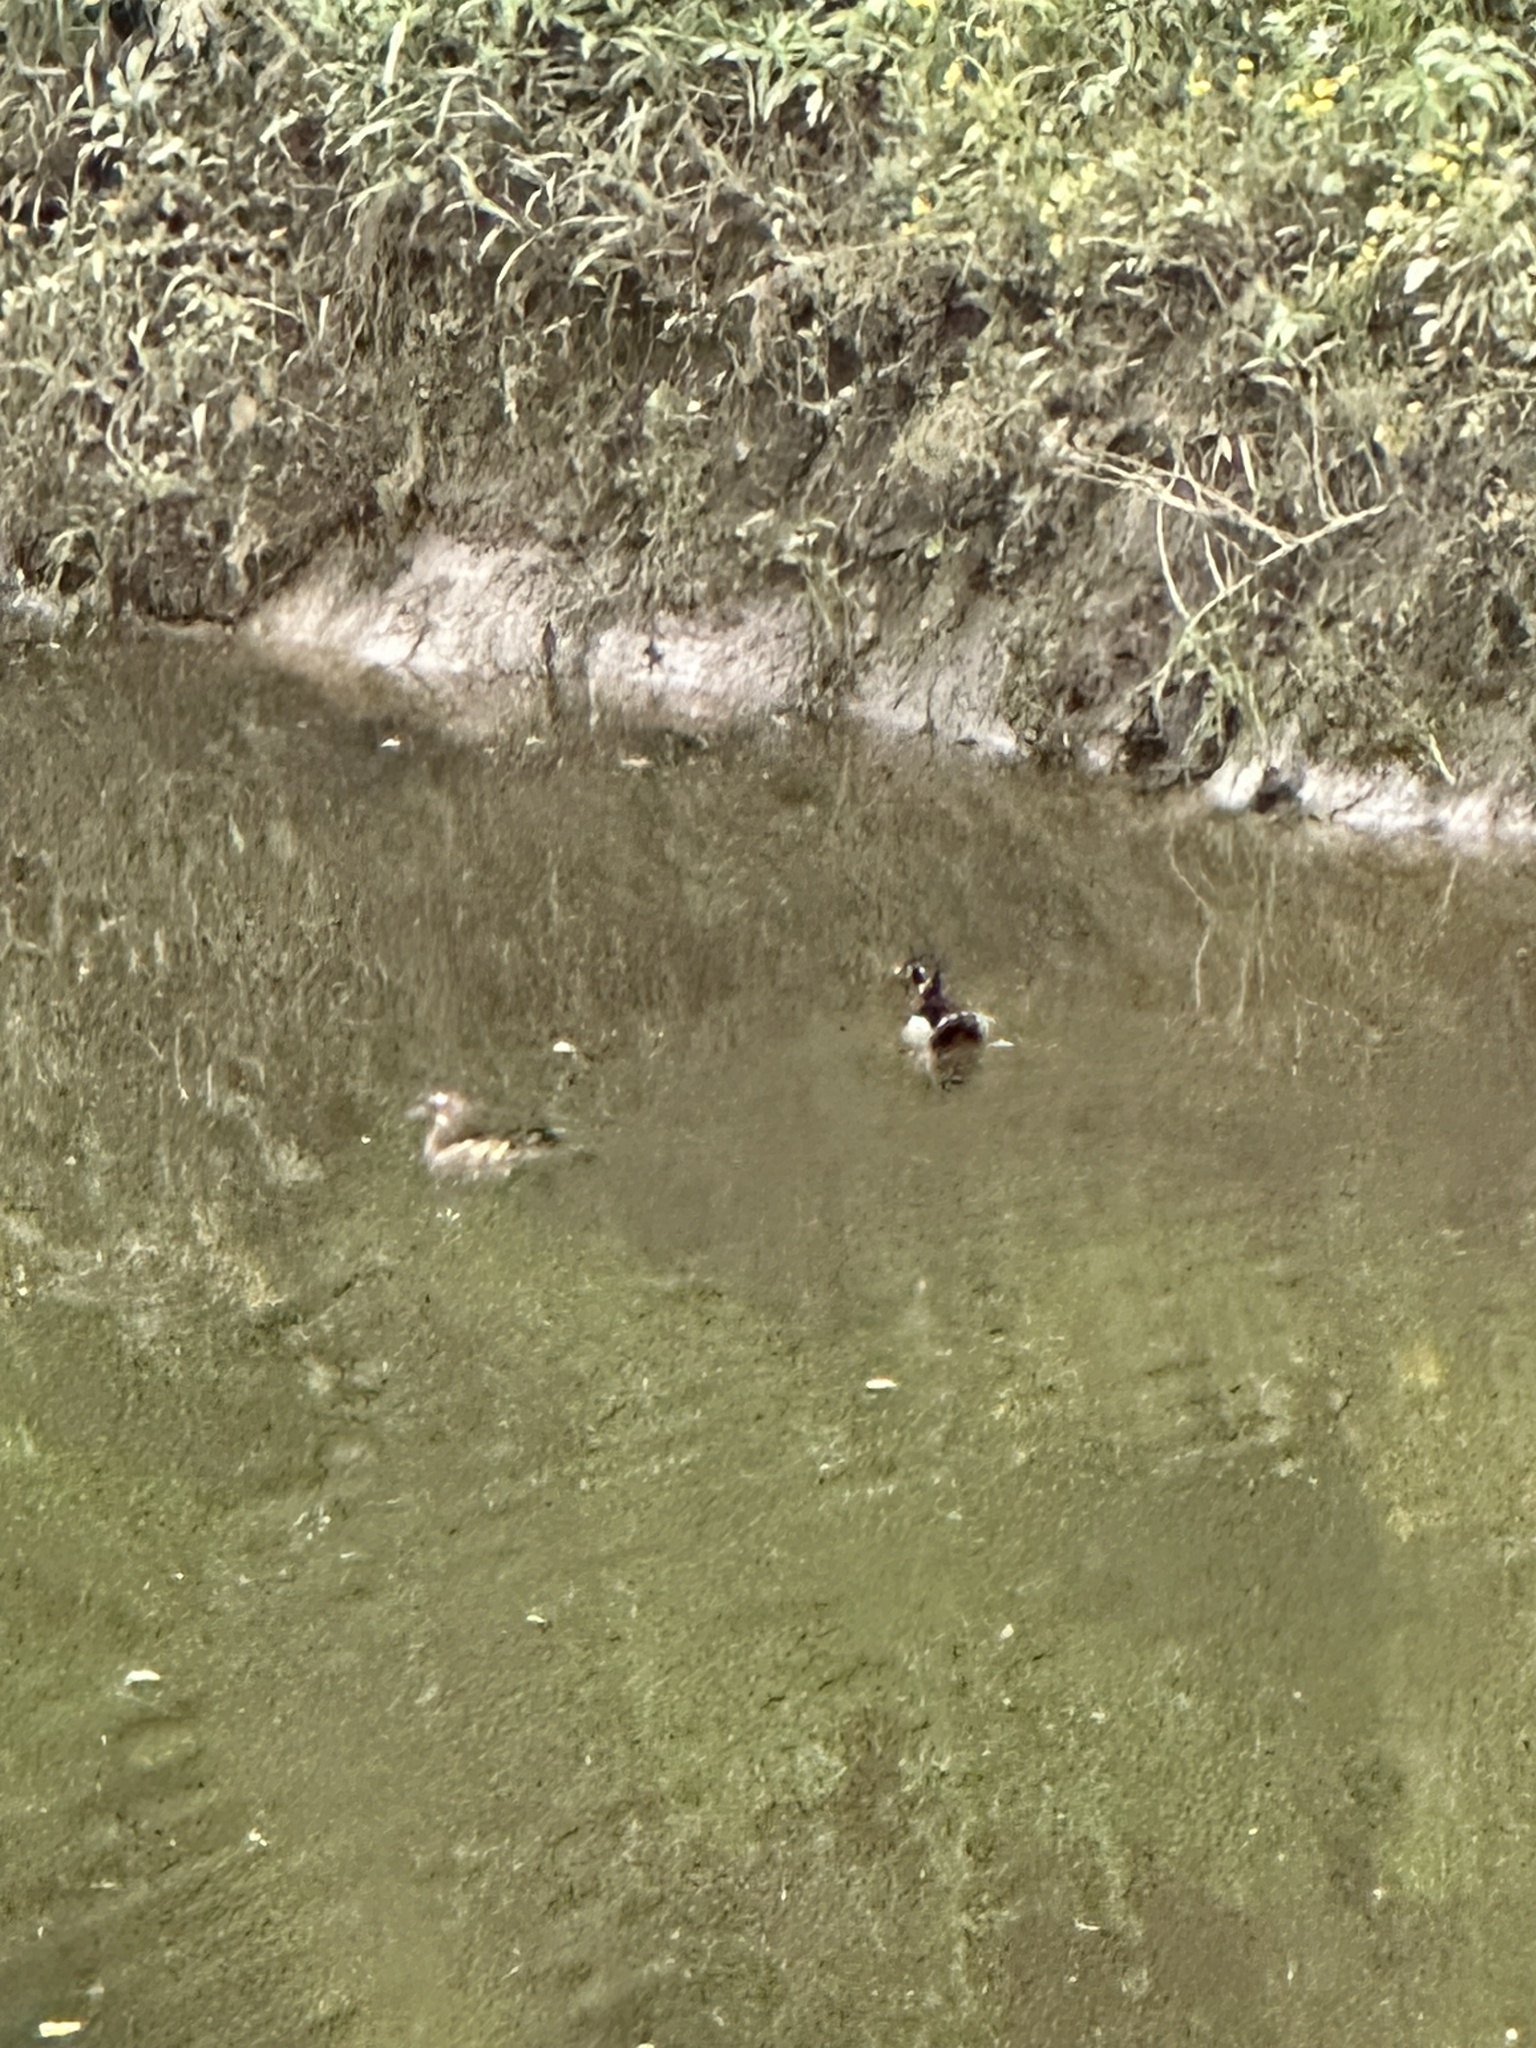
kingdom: Animalia
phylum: Chordata
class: Aves
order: Anseriformes
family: Anatidae
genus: Aix
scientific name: Aix sponsa
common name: Wood duck
